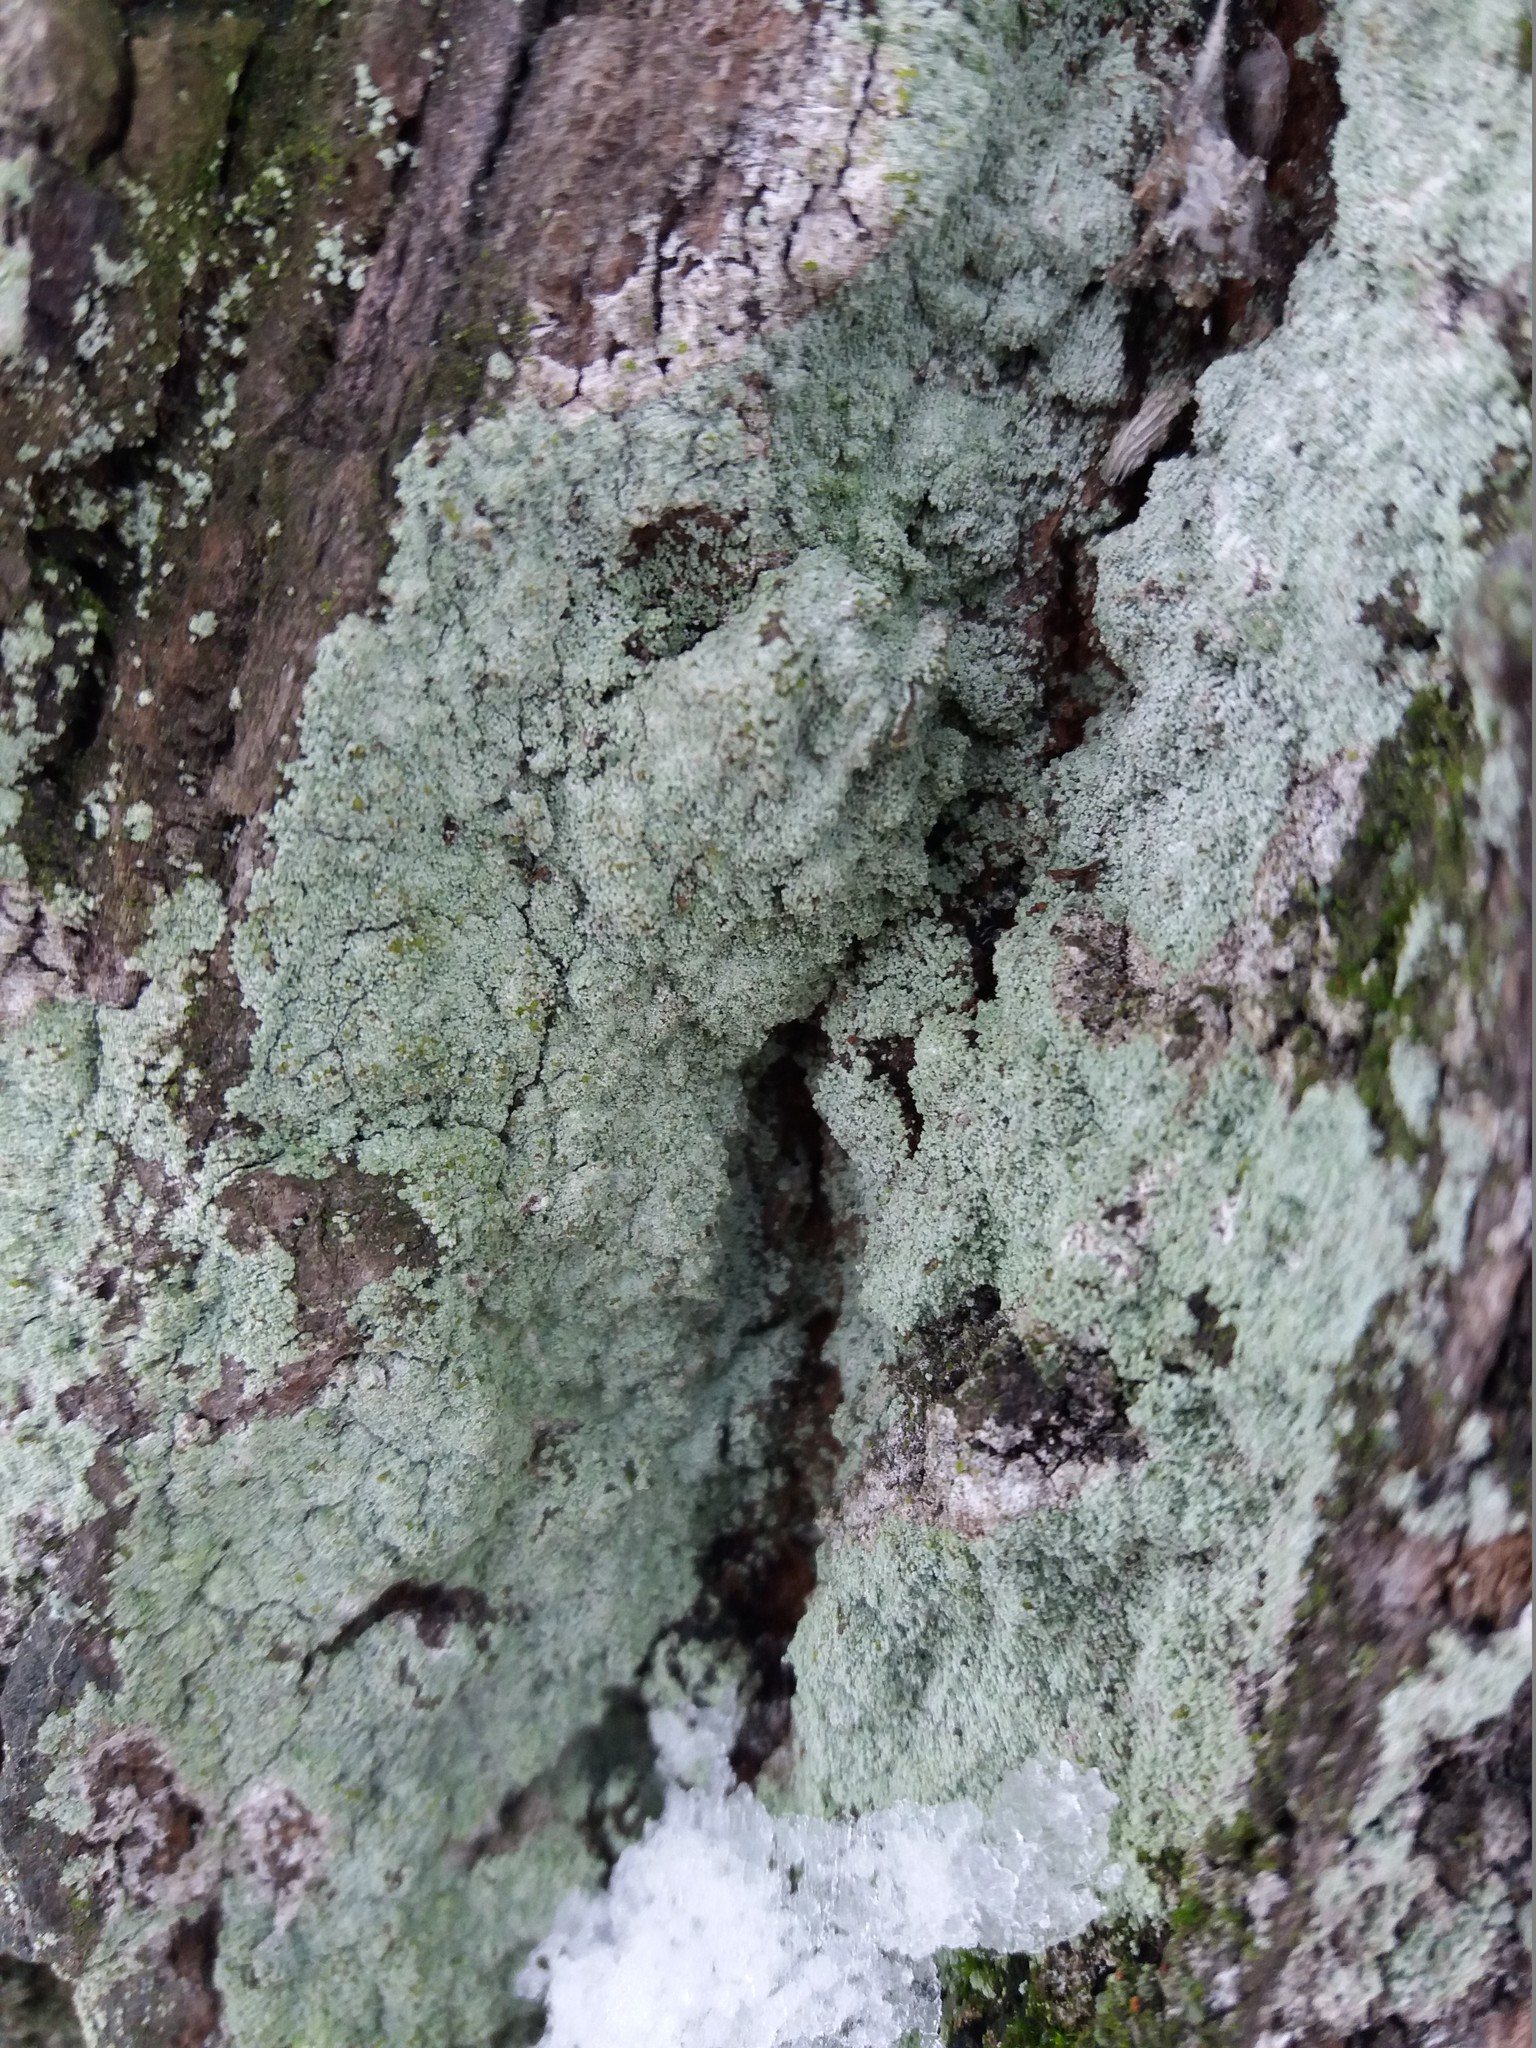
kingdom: Fungi
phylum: Ascomycota
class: Lecanoromycetes
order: Lecanorales
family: Stereocaulaceae
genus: Lepraria
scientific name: Lepraria lobificans
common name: Fluffy dust lichen
